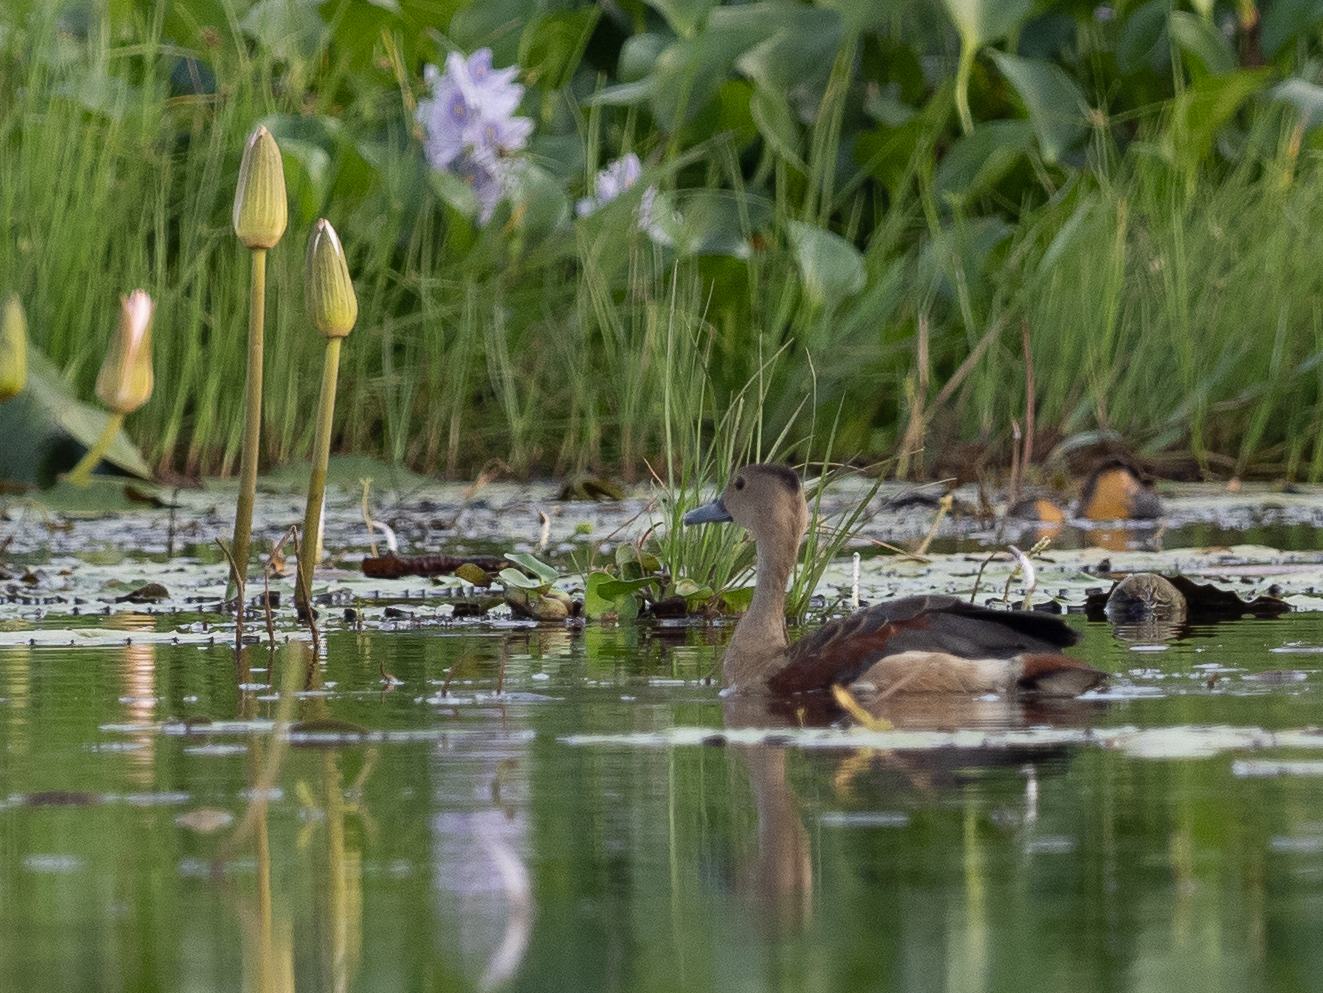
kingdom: Animalia
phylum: Chordata
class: Aves
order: Anseriformes
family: Anatidae
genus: Dendrocygna
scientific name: Dendrocygna javanica
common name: Lesser whistling-duck
